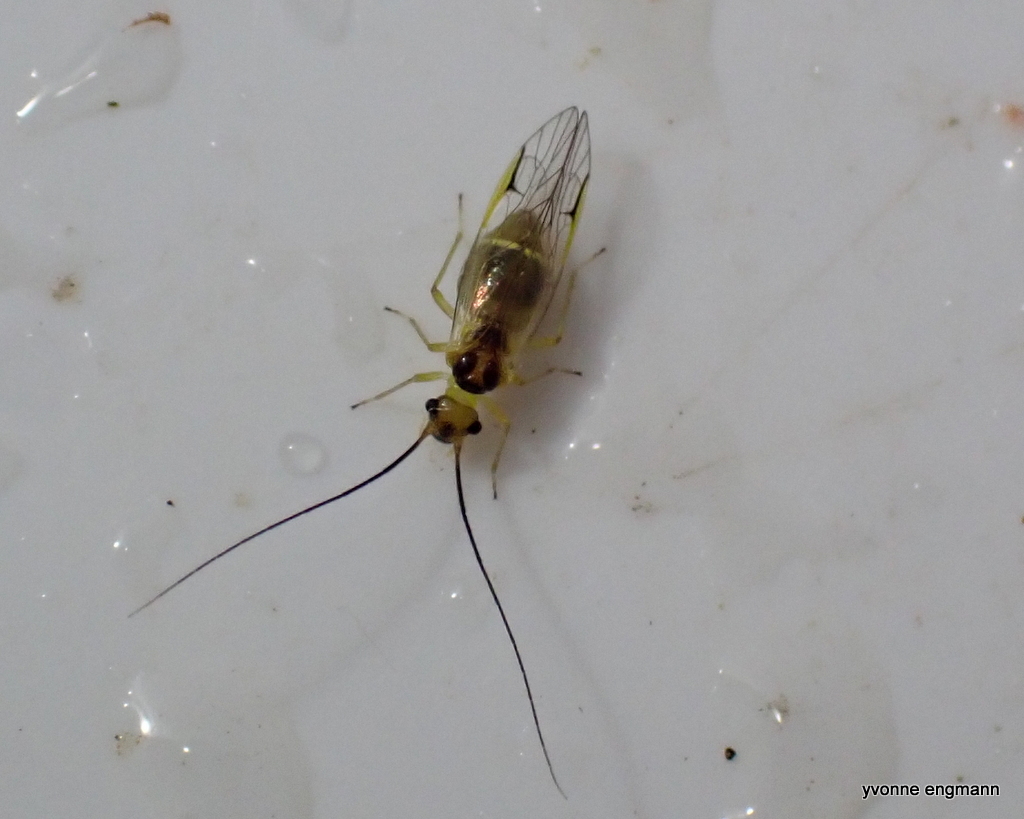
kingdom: Animalia
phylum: Arthropoda
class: Insecta
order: Psocodea
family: Stenopsocidae
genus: Stenopsocus
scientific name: Stenopsocus stigmaticus
